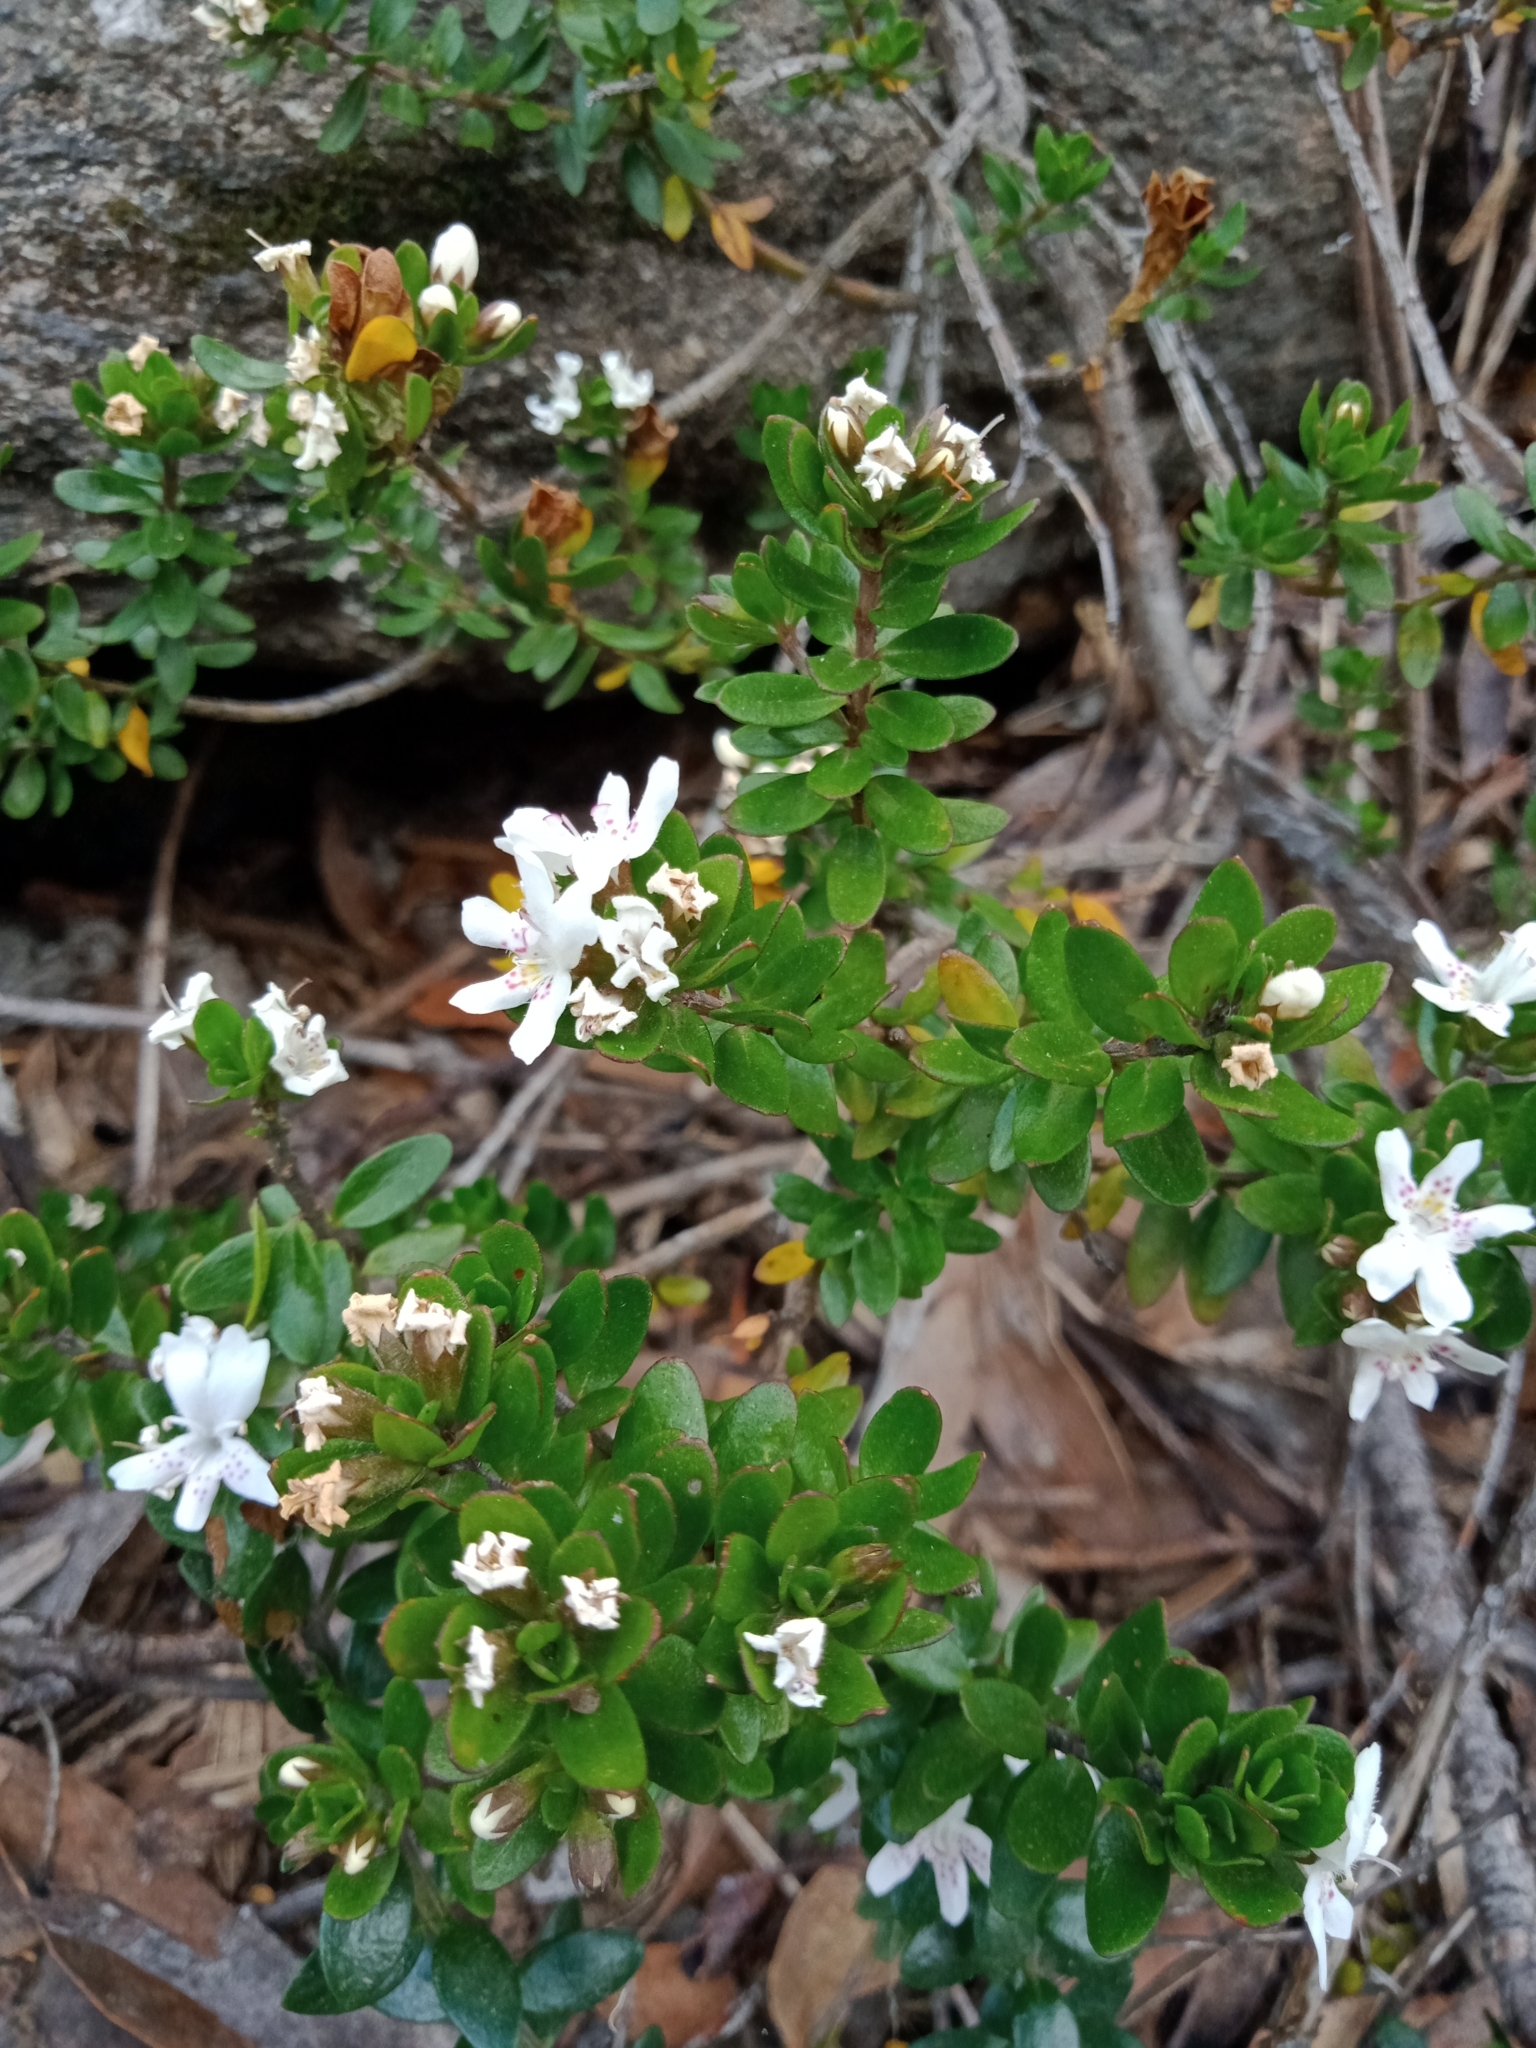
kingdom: Plantae
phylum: Tracheophyta
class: Magnoliopsida
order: Lamiales
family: Lamiaceae
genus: Westringia
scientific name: Westringia lucida
